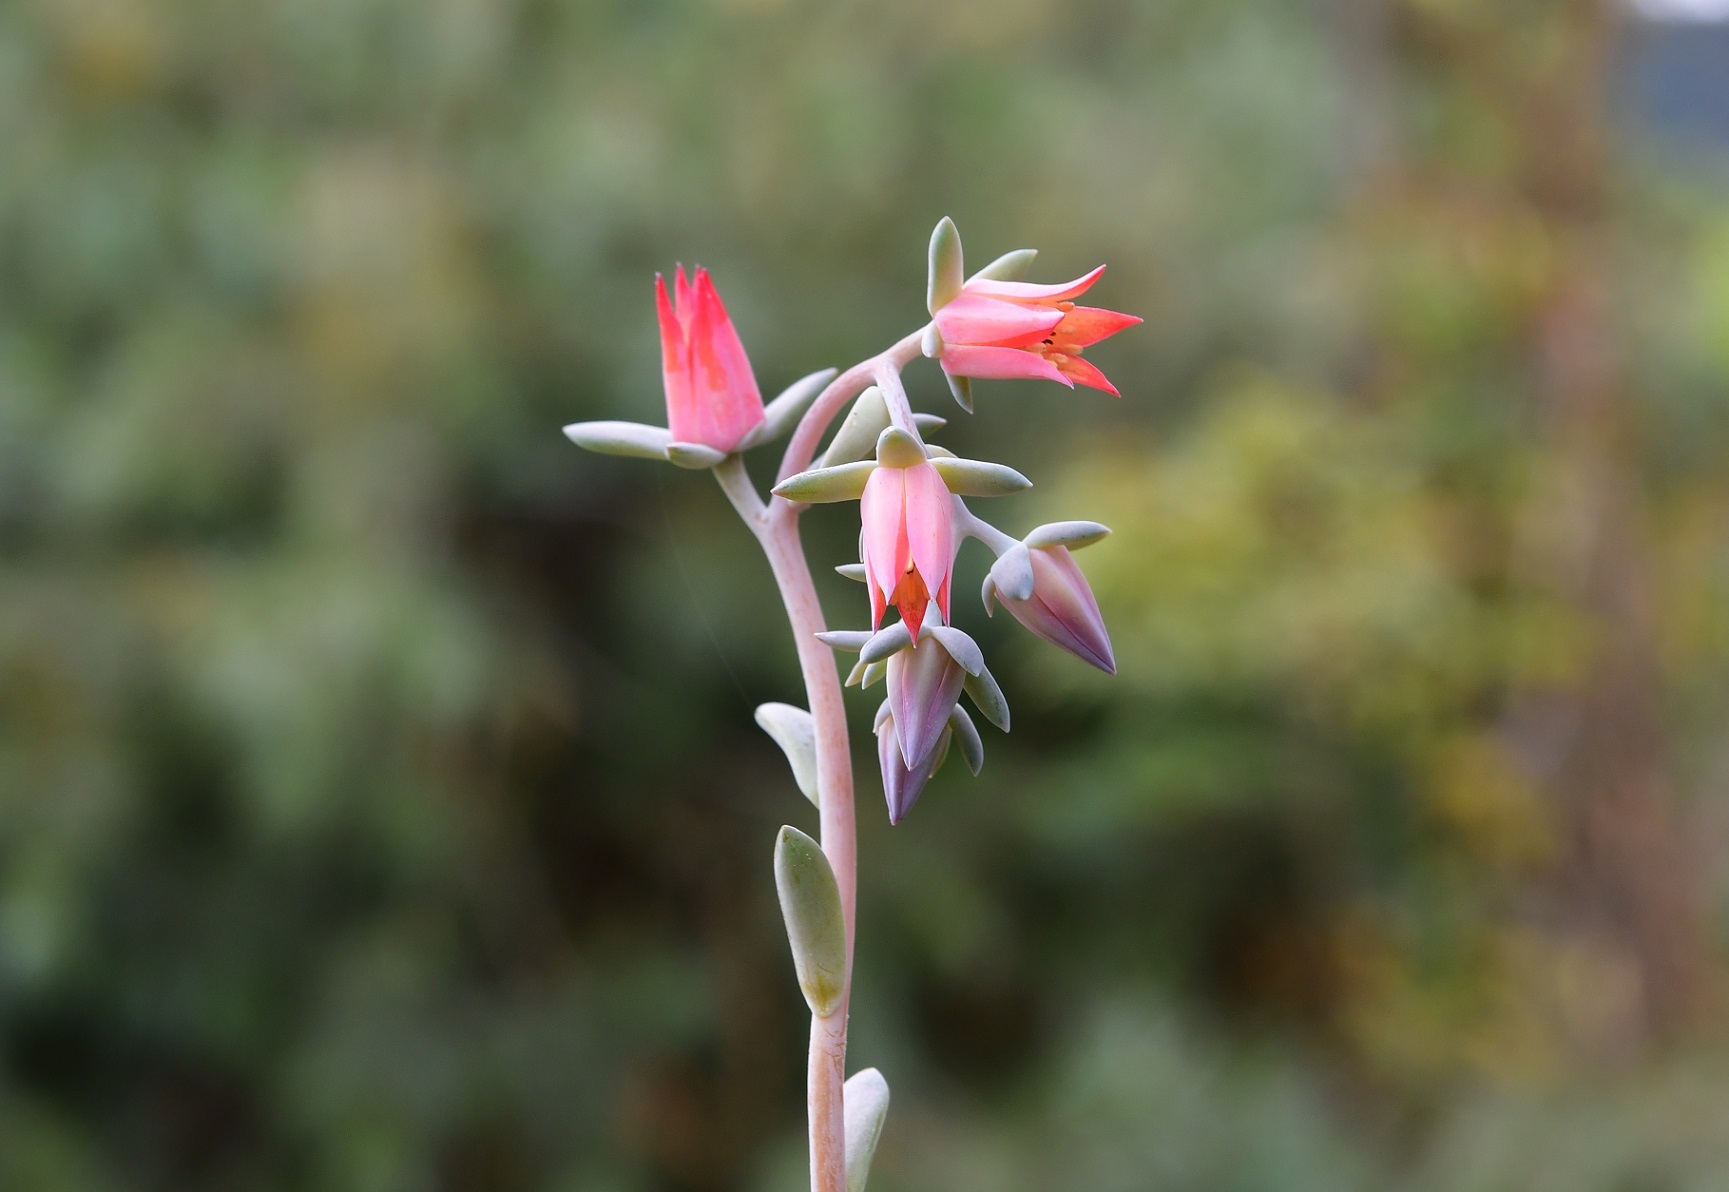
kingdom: Plantae
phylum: Tracheophyta
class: Magnoliopsida
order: Saxifragales
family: Crassulaceae
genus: Echeveria
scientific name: Echeveria prunina
